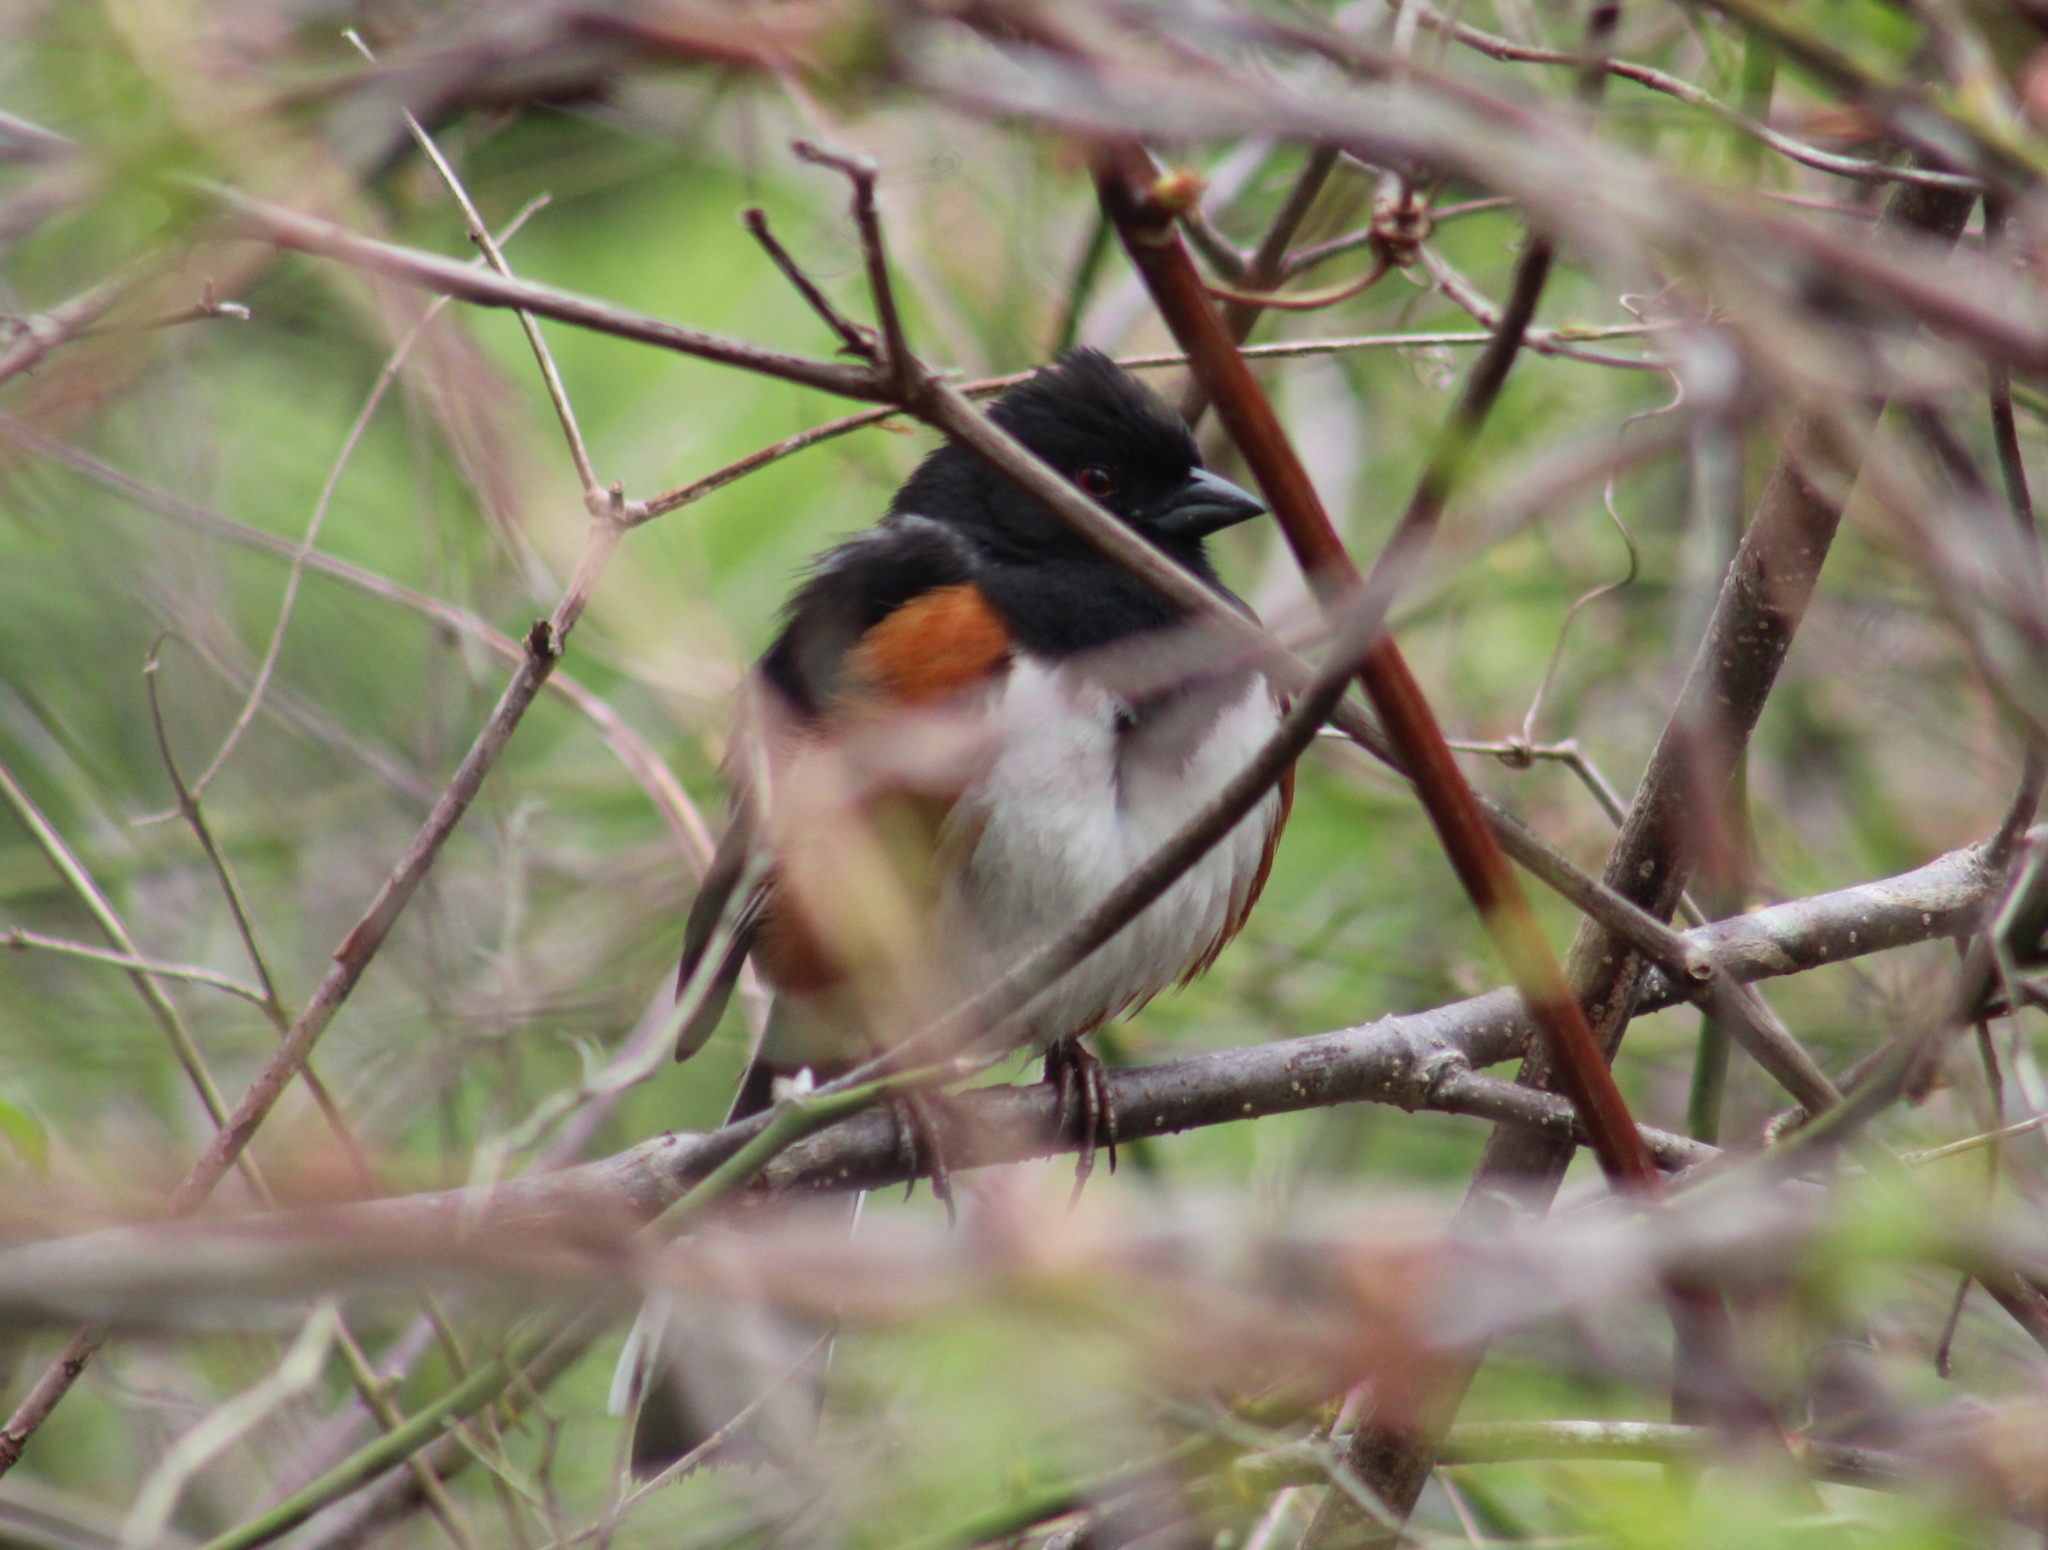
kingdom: Animalia
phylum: Chordata
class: Aves
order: Passeriformes
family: Passerellidae
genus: Pipilo
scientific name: Pipilo erythrophthalmus
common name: Eastern towhee
